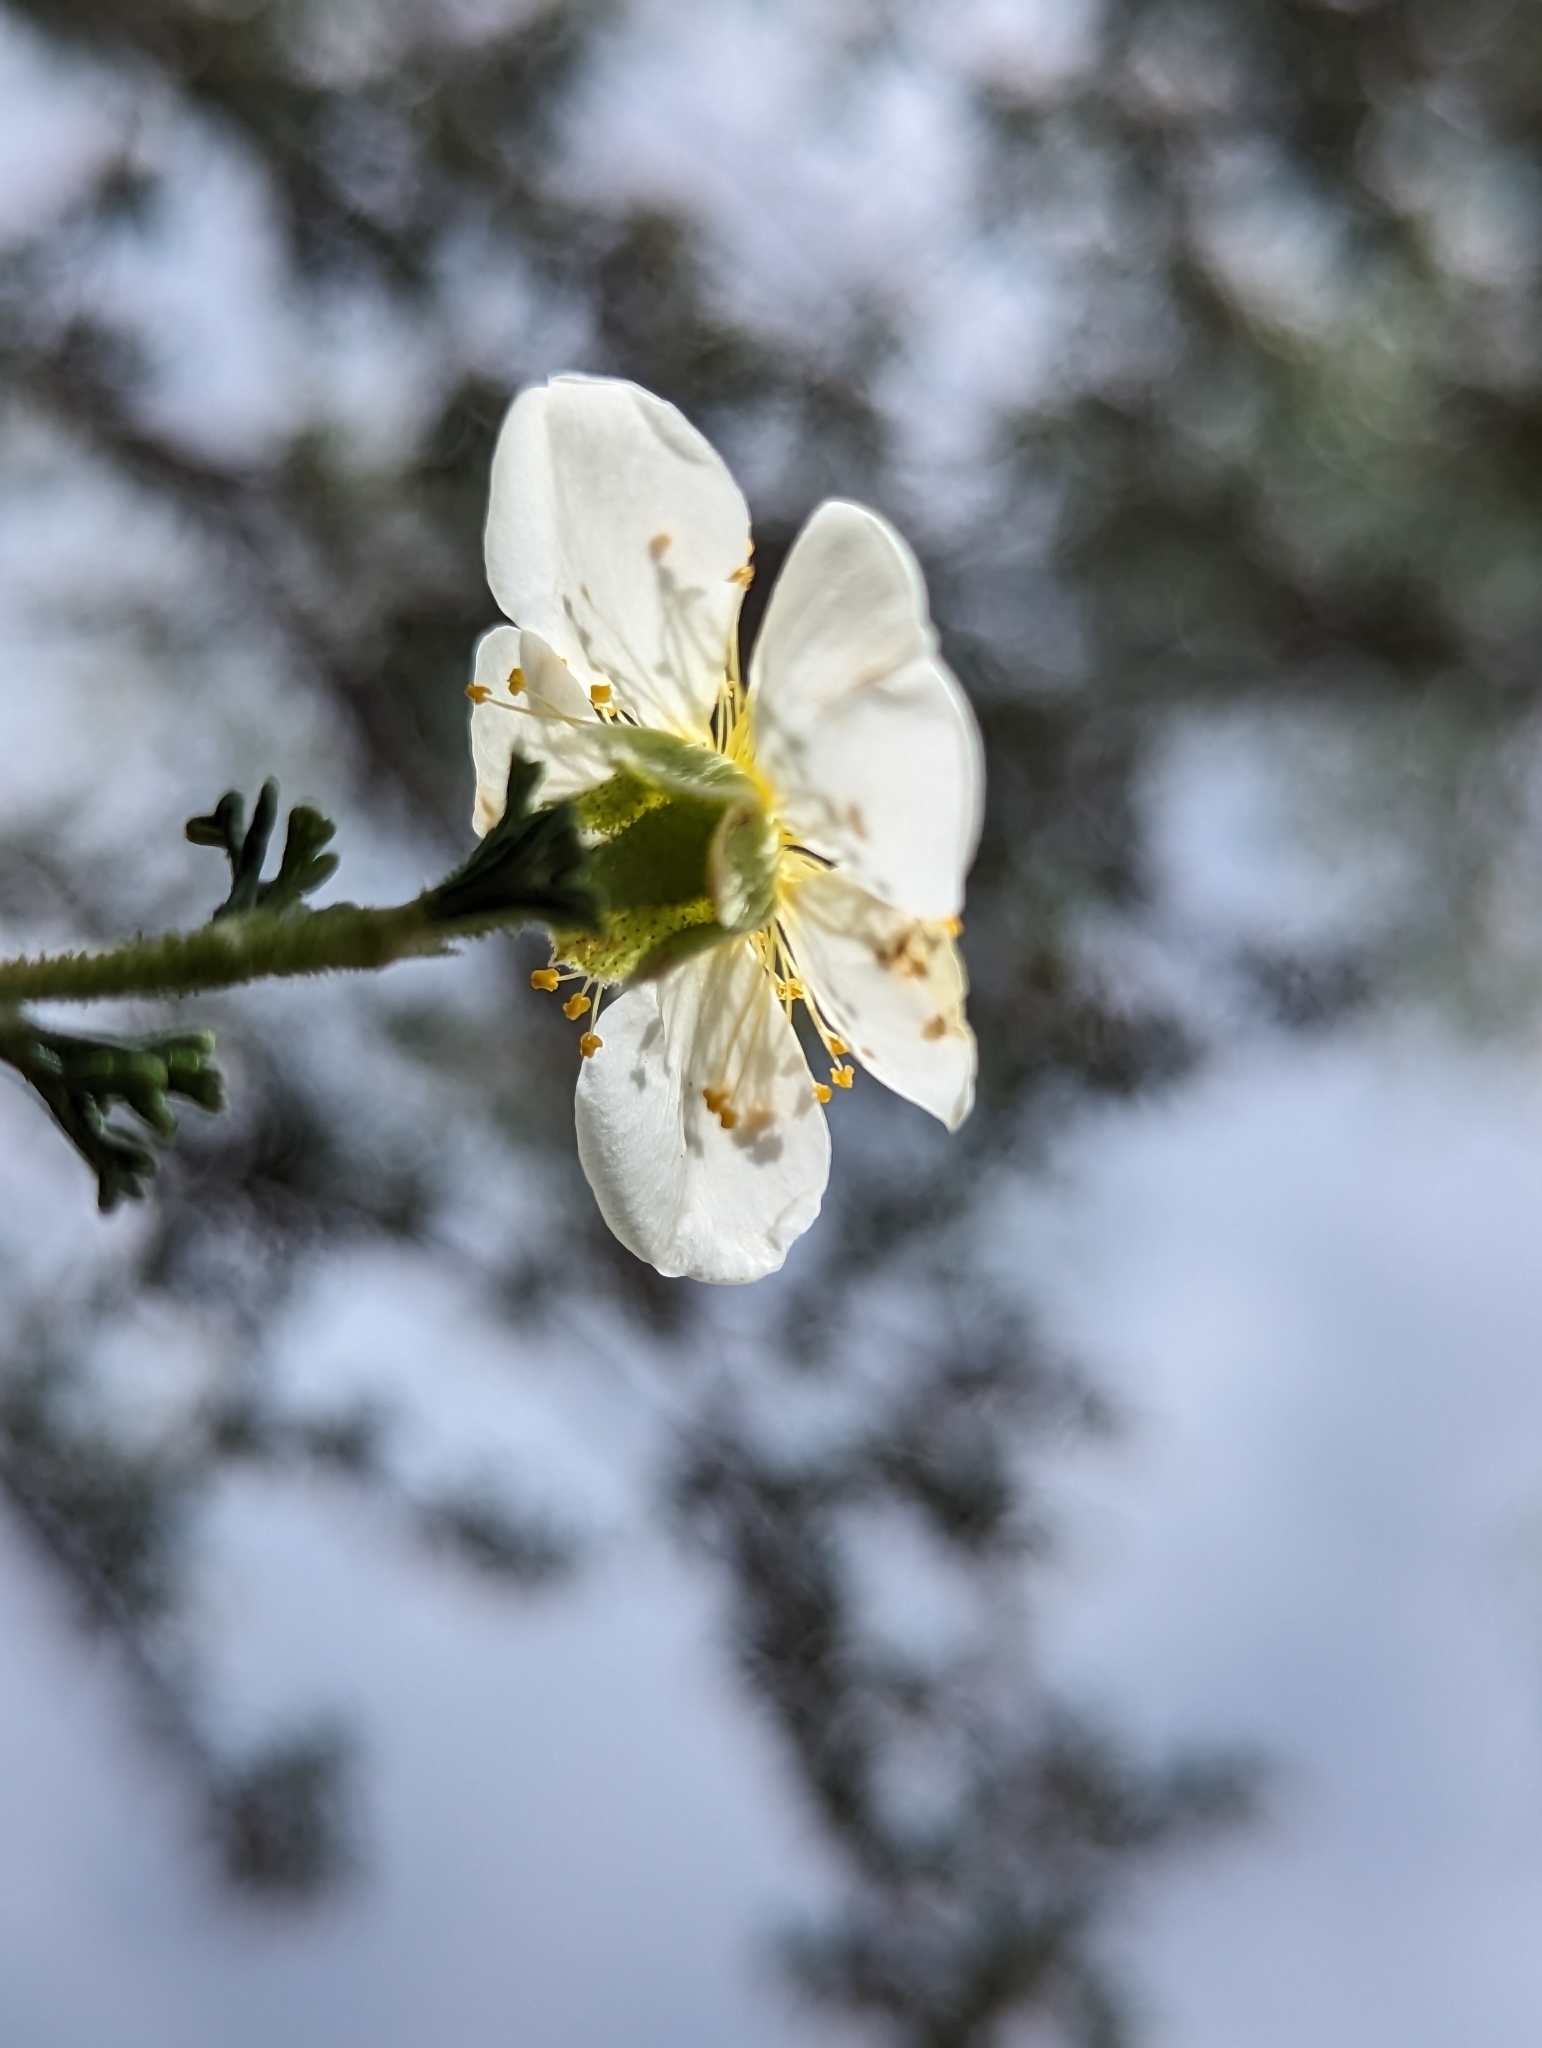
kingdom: Plantae
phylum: Tracheophyta
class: Magnoliopsida
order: Rosales
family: Rosaceae
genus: Purshia
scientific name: Purshia stansburiana
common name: Stansbury's cliffrose
